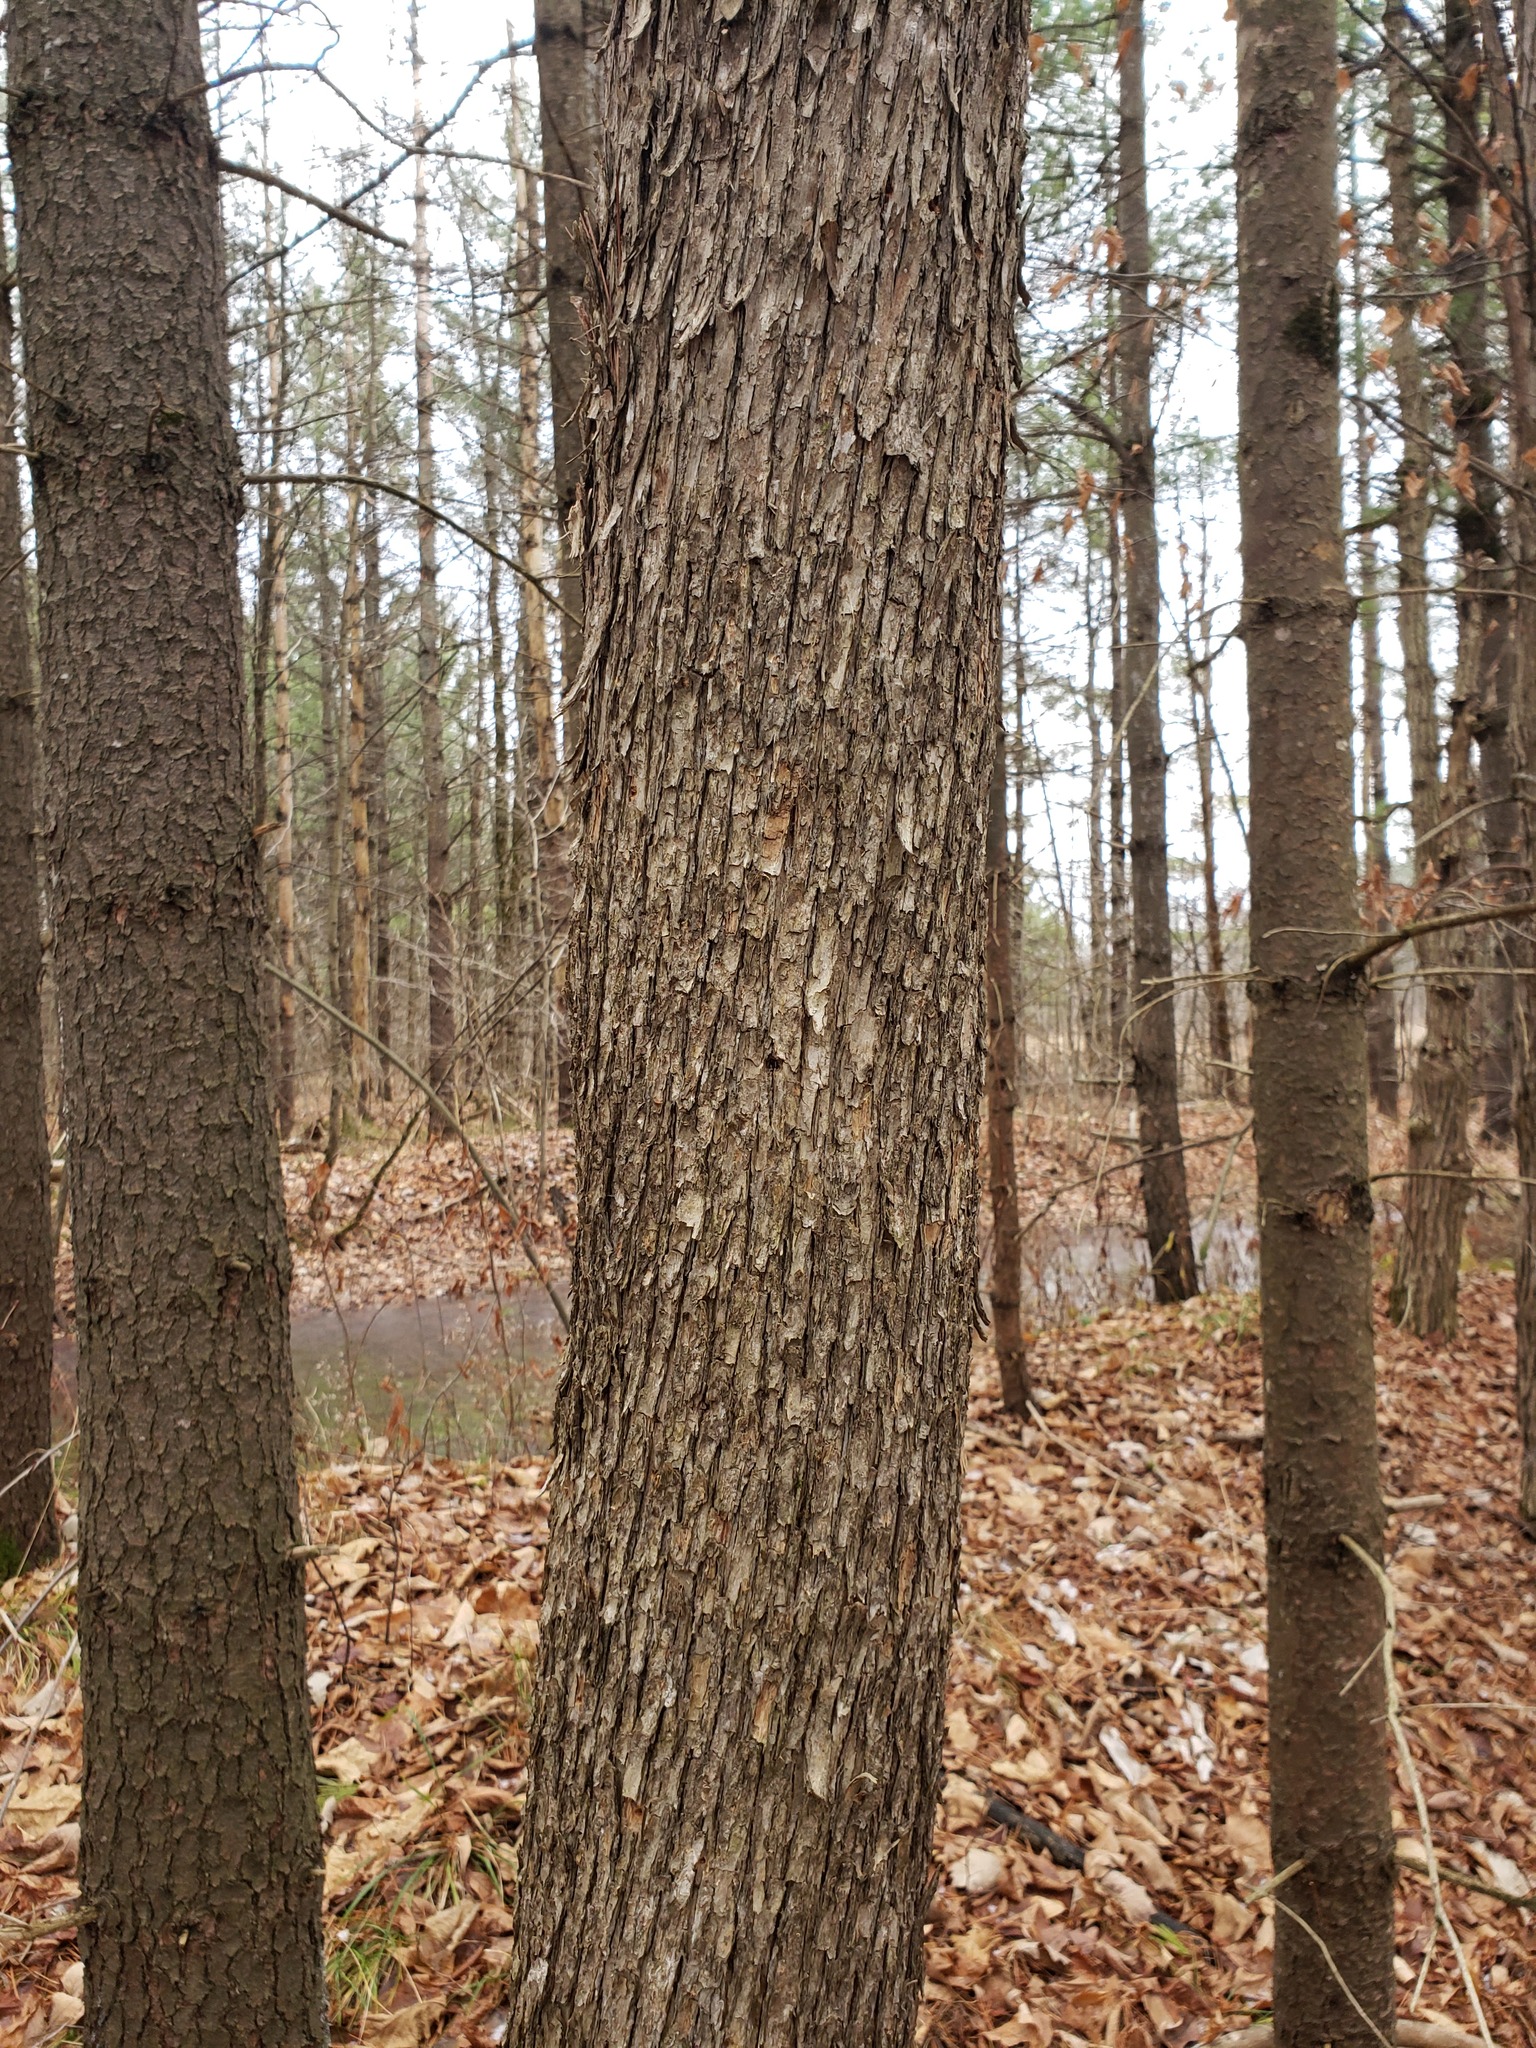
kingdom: Plantae
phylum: Tracheophyta
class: Magnoliopsida
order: Fagales
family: Betulaceae
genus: Ostrya
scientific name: Ostrya virginiana
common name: Ironwood
